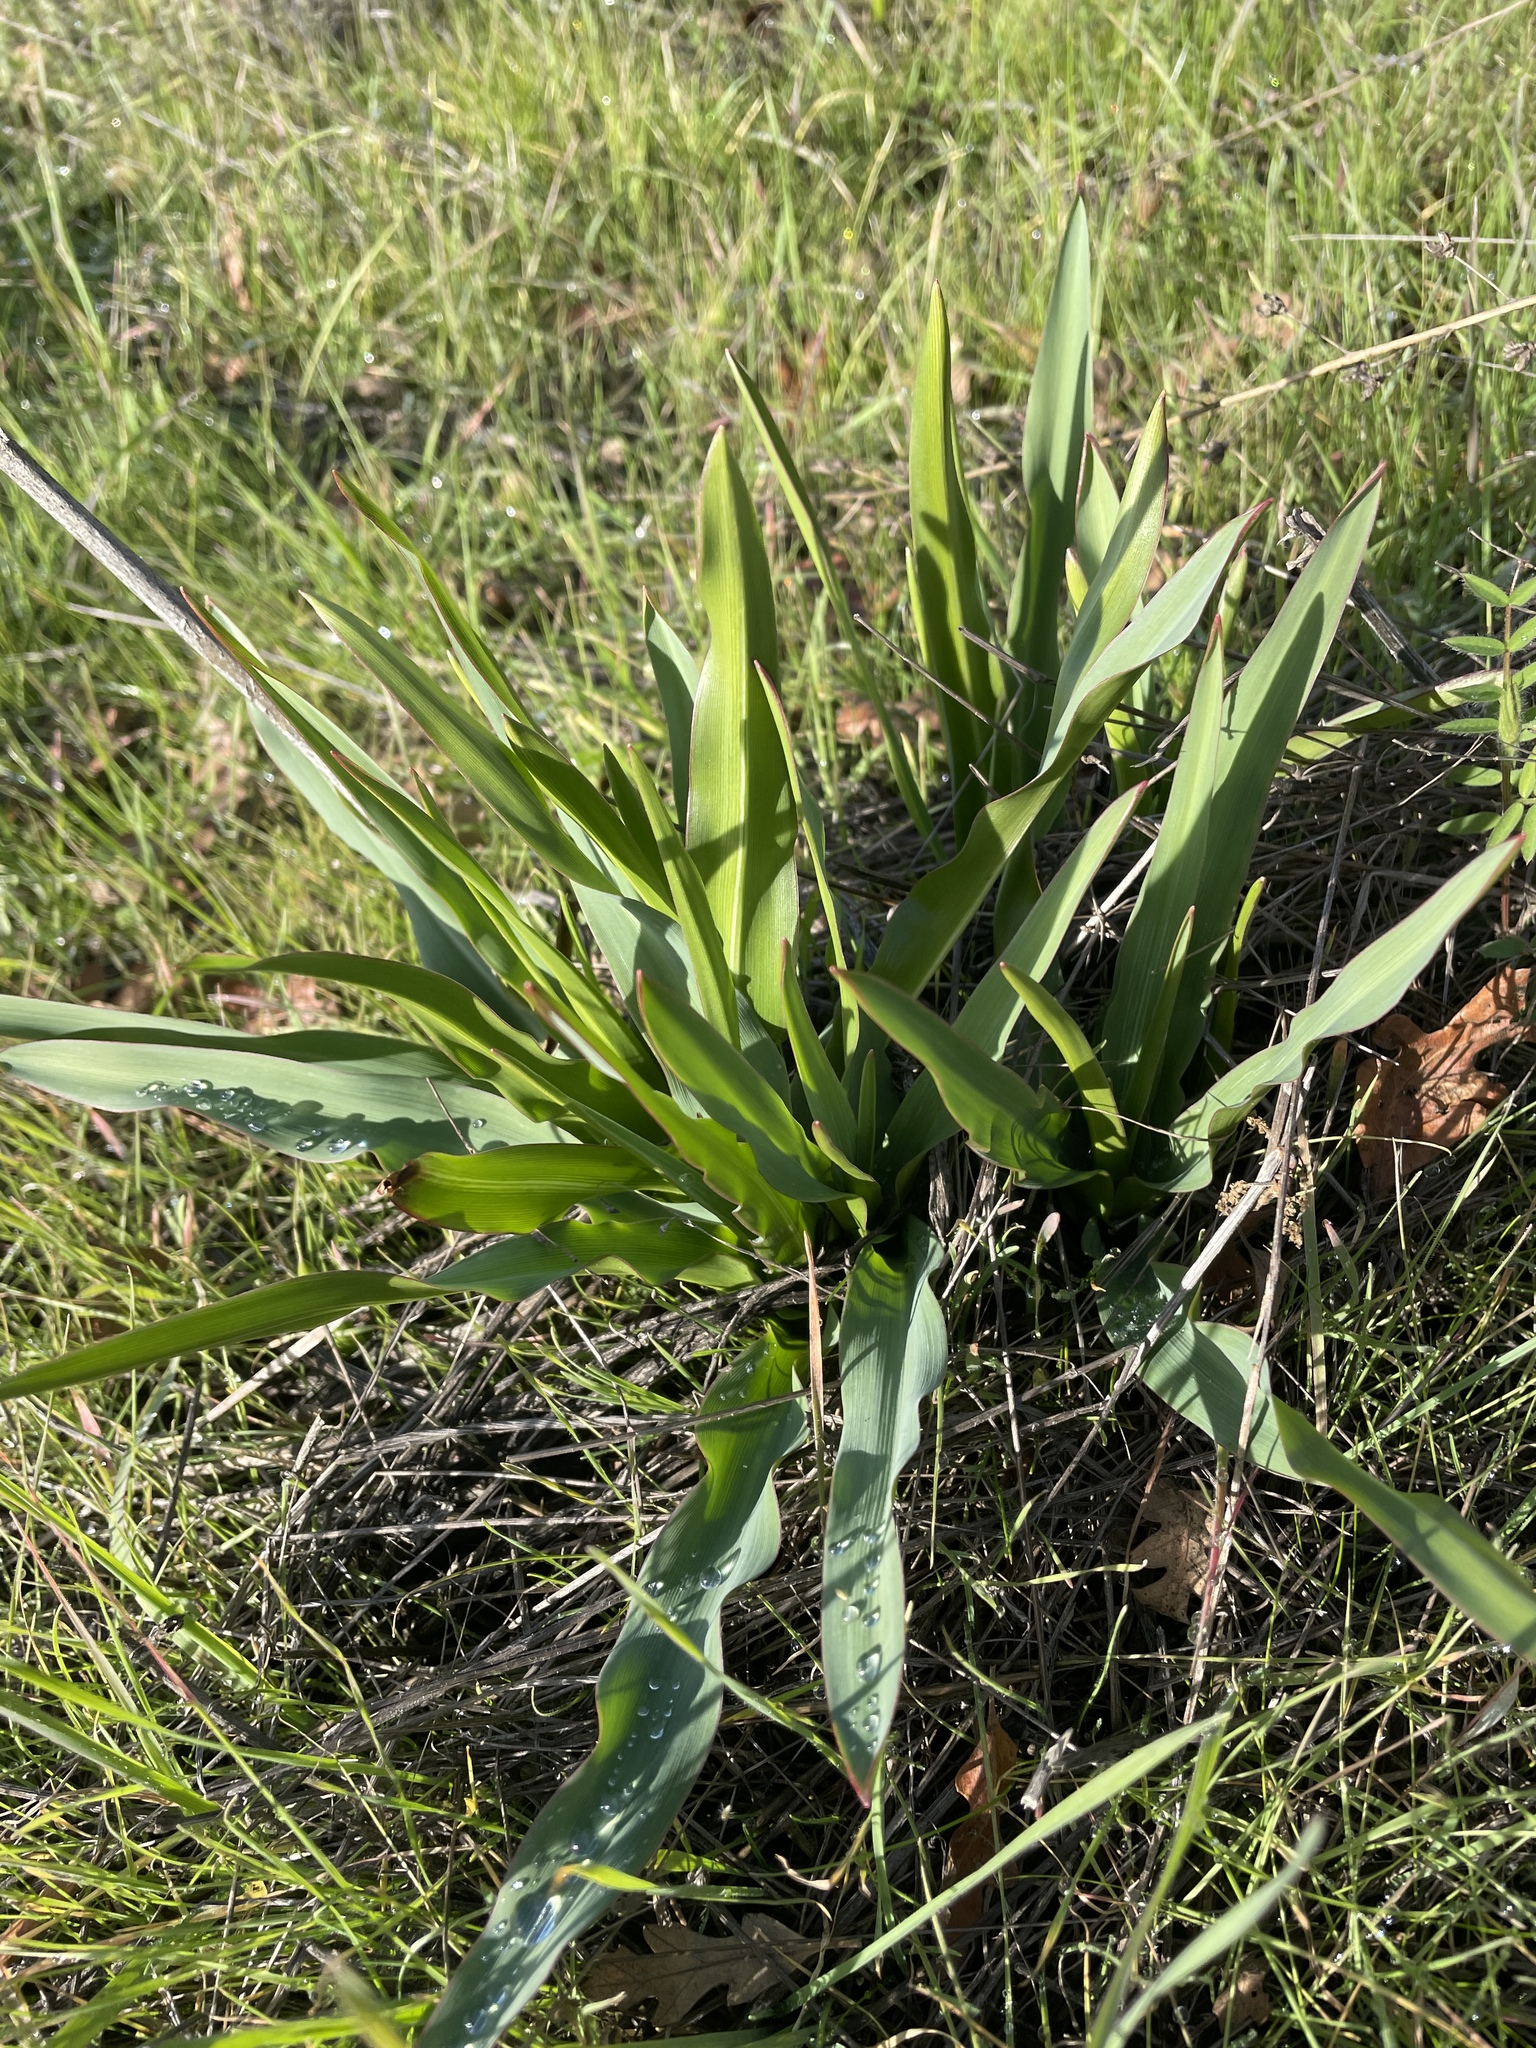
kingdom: Plantae
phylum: Tracheophyta
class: Liliopsida
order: Asparagales
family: Asparagaceae
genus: Chlorogalum
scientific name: Chlorogalum pomeridianum
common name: Amole
